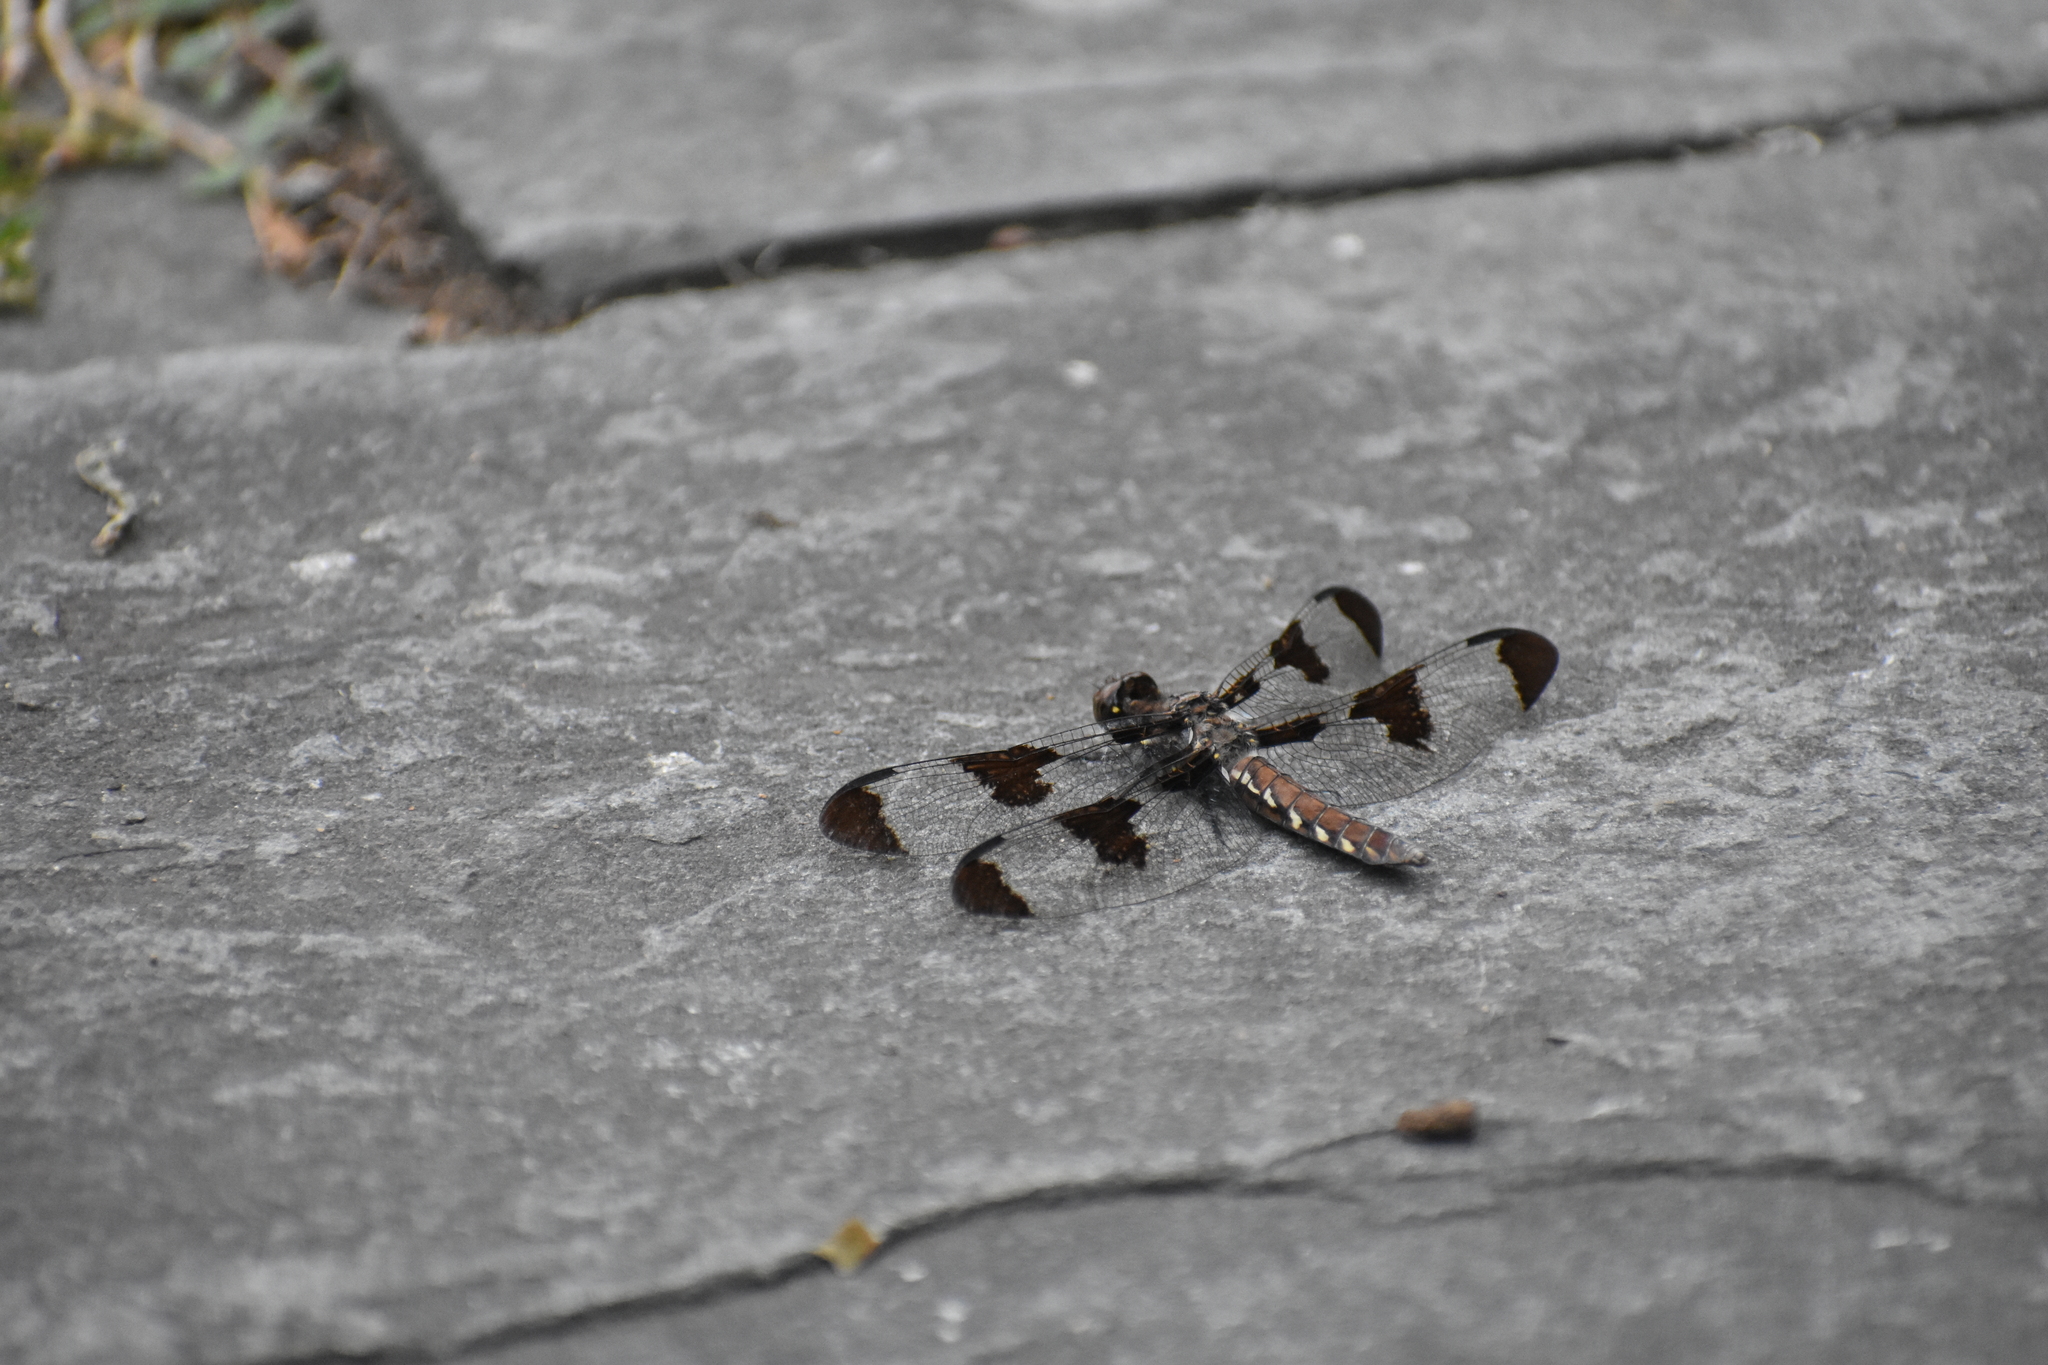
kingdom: Animalia
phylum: Arthropoda
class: Insecta
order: Odonata
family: Libellulidae
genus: Plathemis
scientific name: Plathemis lydia
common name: Common whitetail
